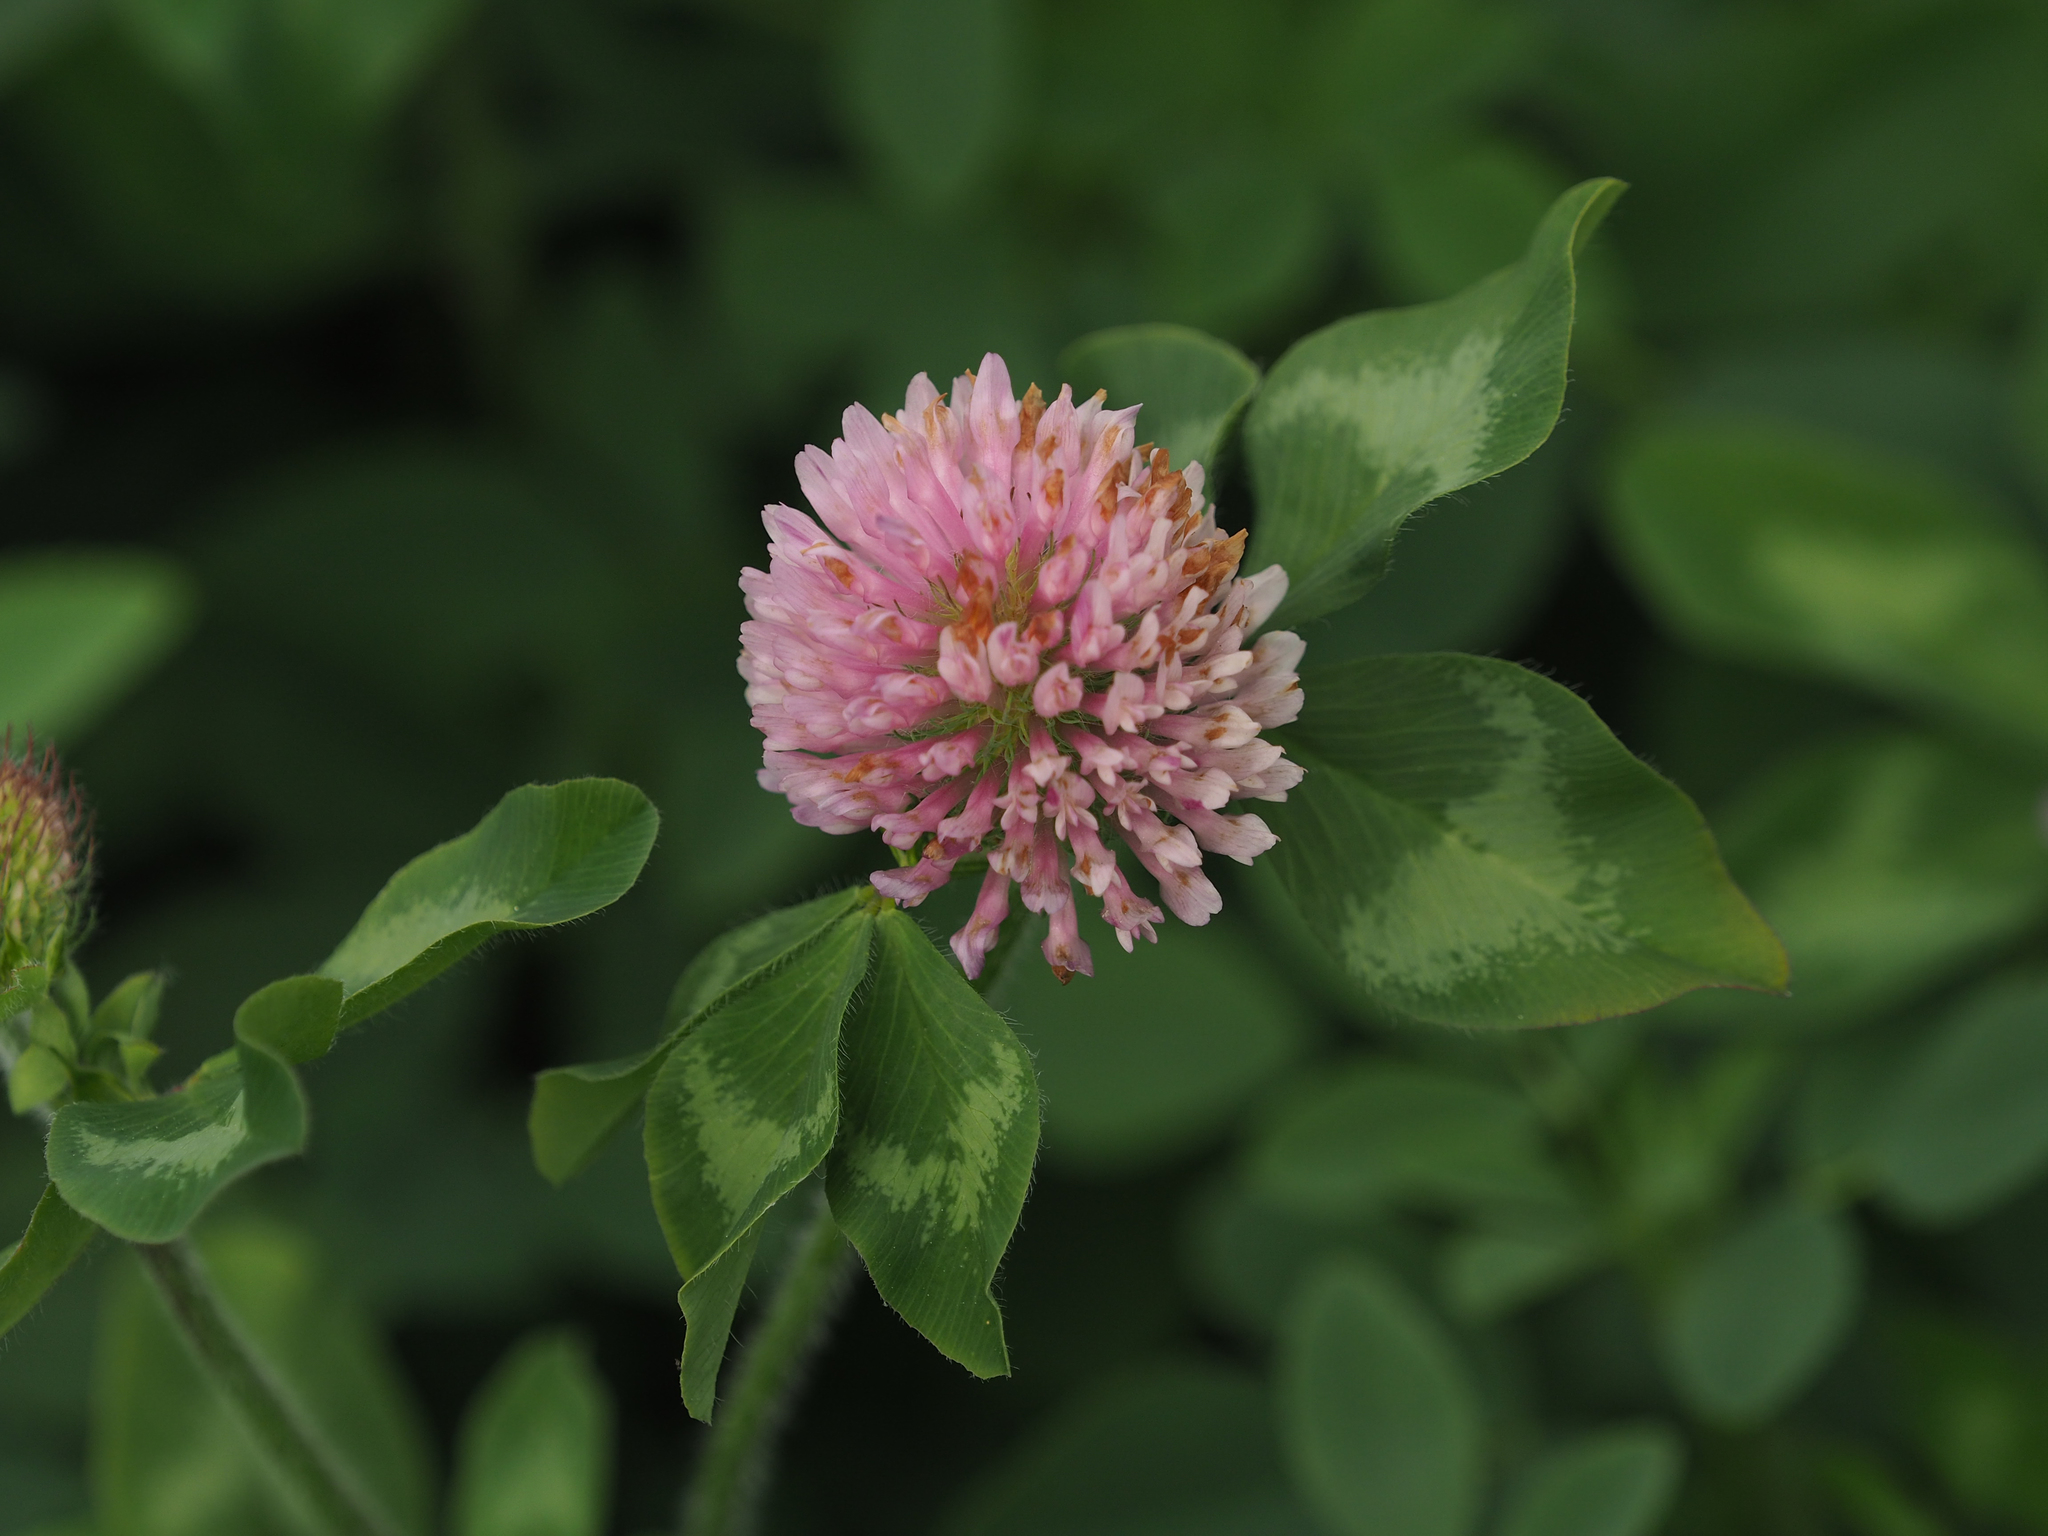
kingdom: Plantae
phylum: Tracheophyta
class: Magnoliopsida
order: Fabales
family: Fabaceae
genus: Trifolium
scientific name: Trifolium pratense
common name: Red clover
